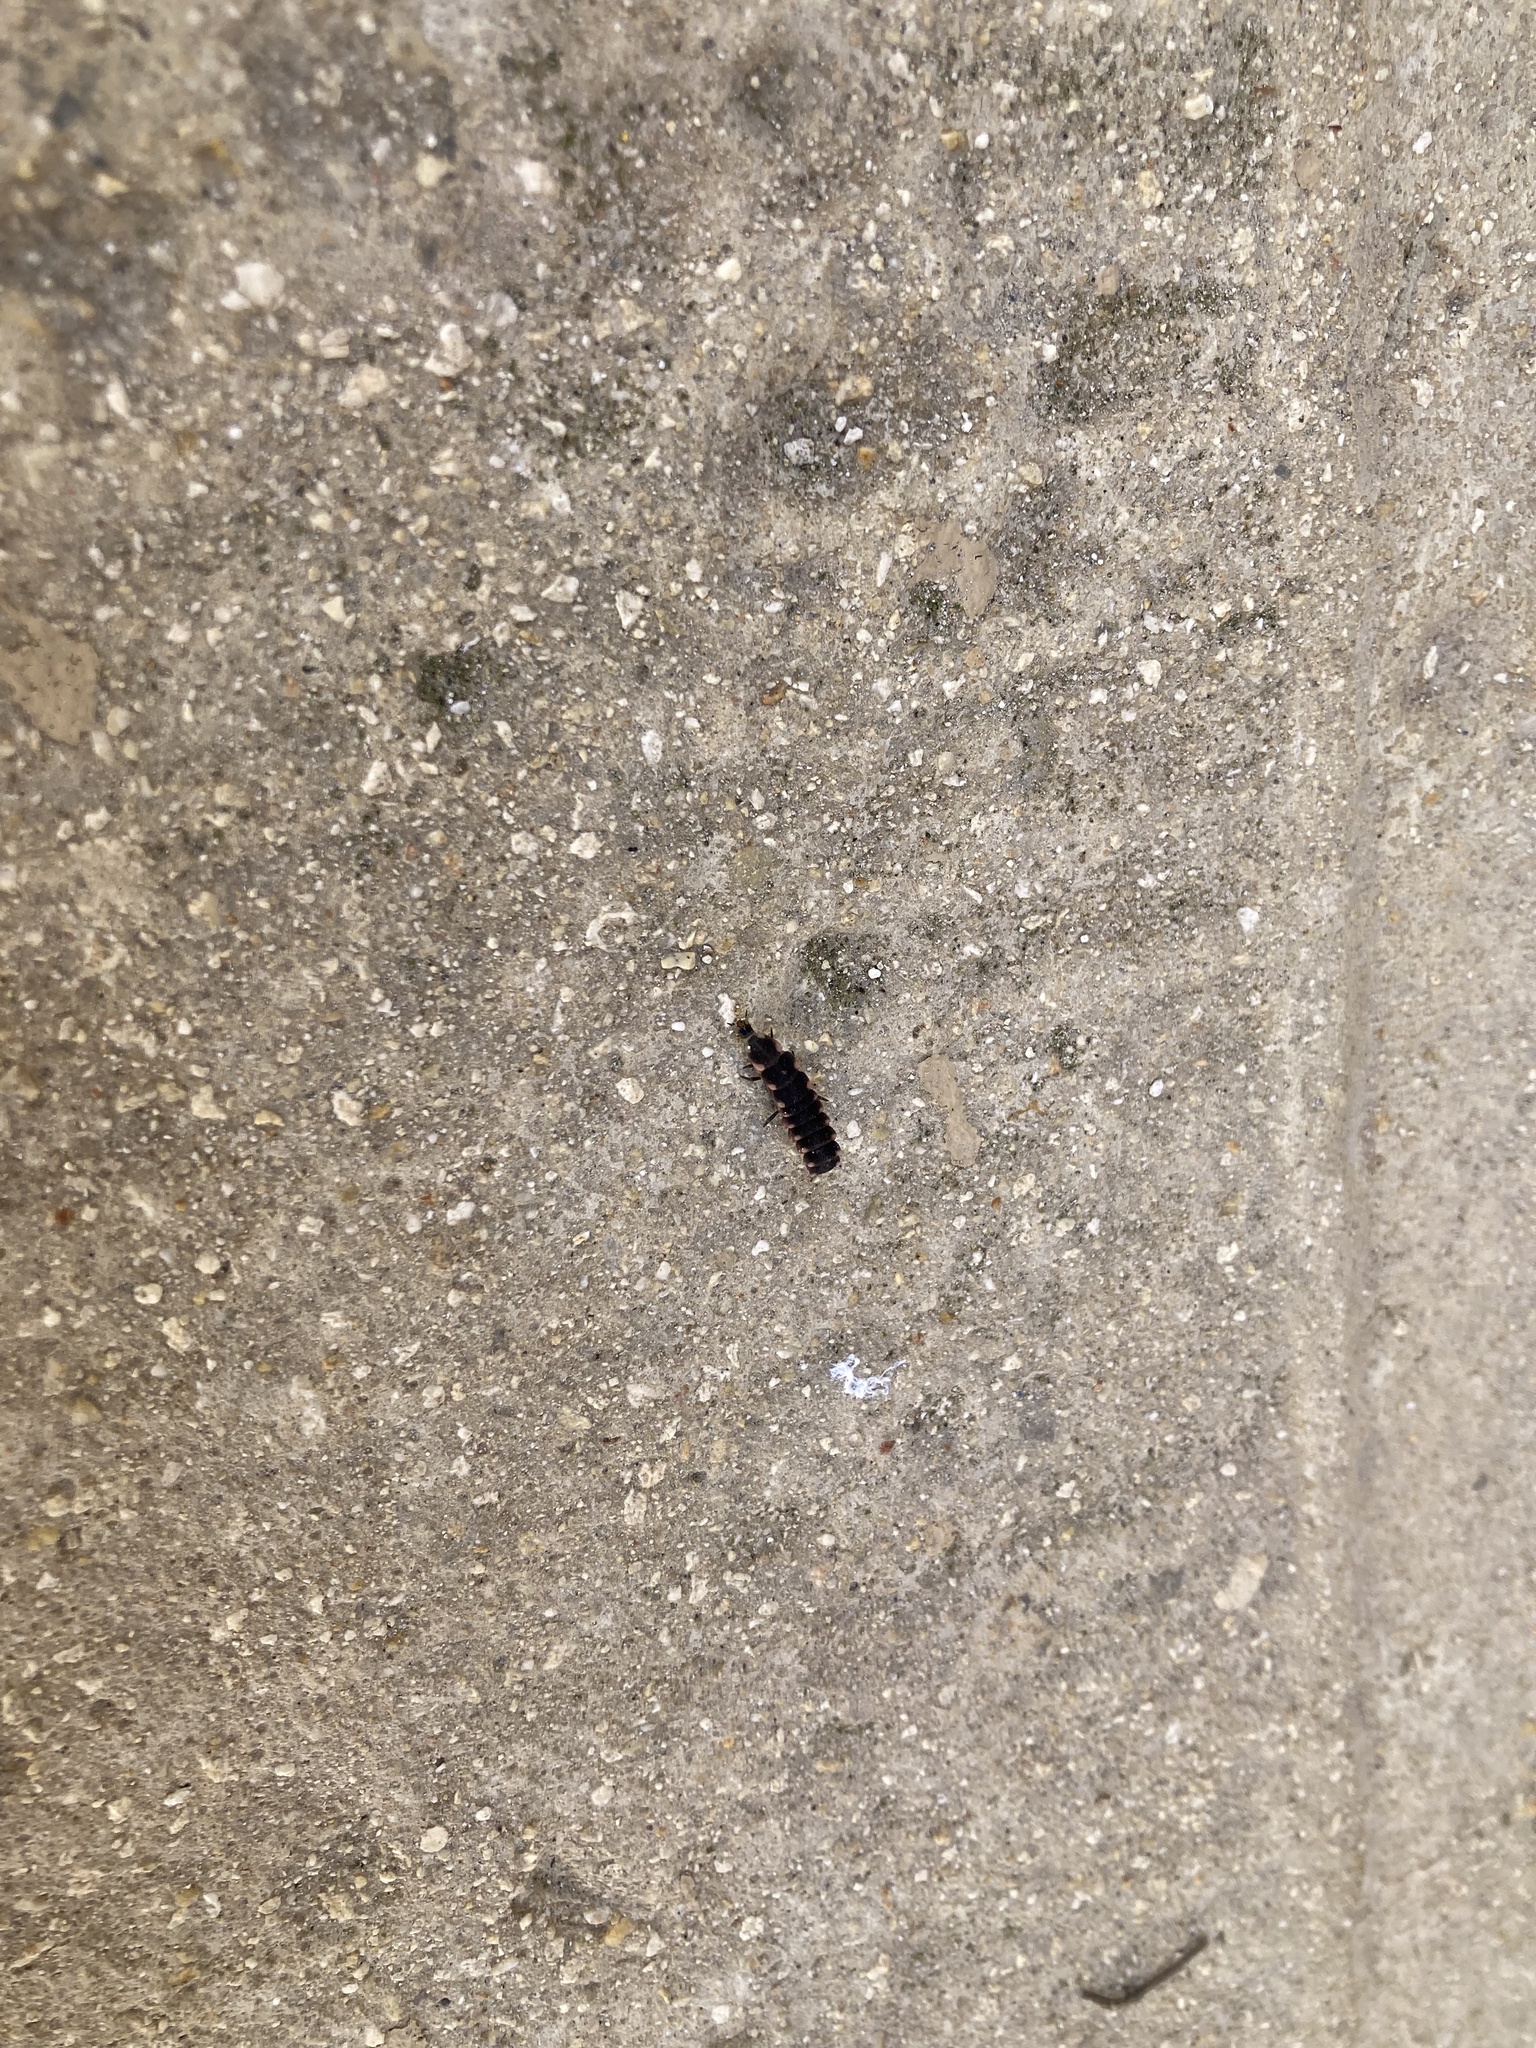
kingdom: Animalia
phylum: Arthropoda
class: Insecta
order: Coleoptera
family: Lampyridae
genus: Lampyris
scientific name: Lampyris pallida
